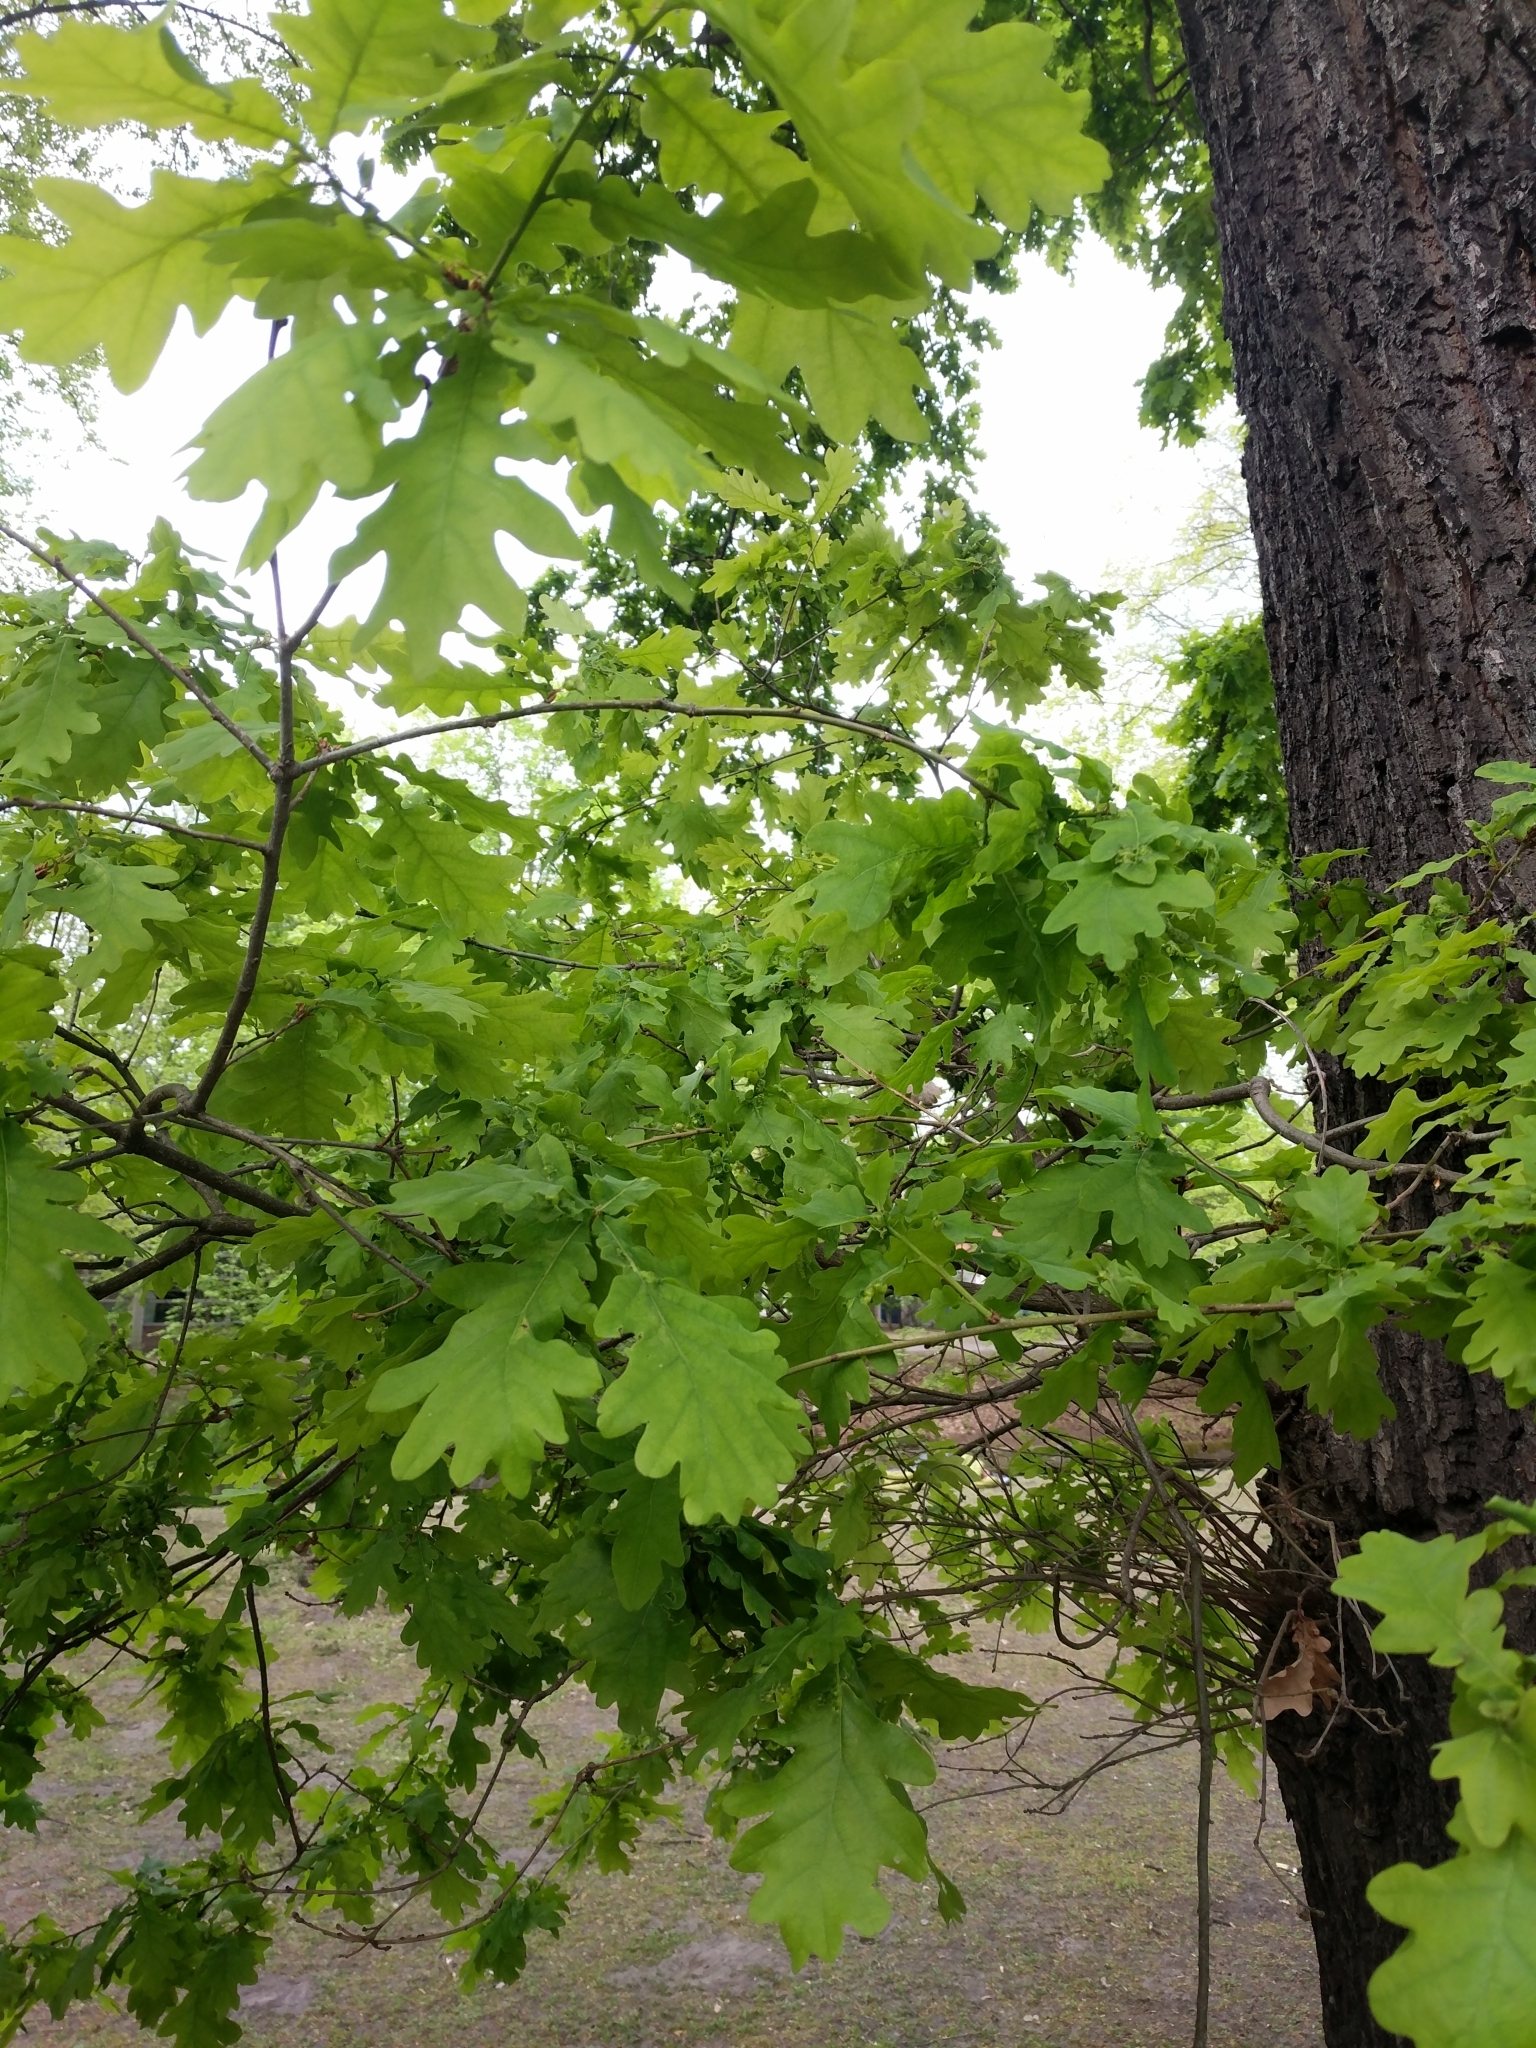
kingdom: Plantae
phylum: Tracheophyta
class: Magnoliopsida
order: Fagales
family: Fagaceae
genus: Quercus
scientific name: Quercus robur
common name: Pedunculate oak
